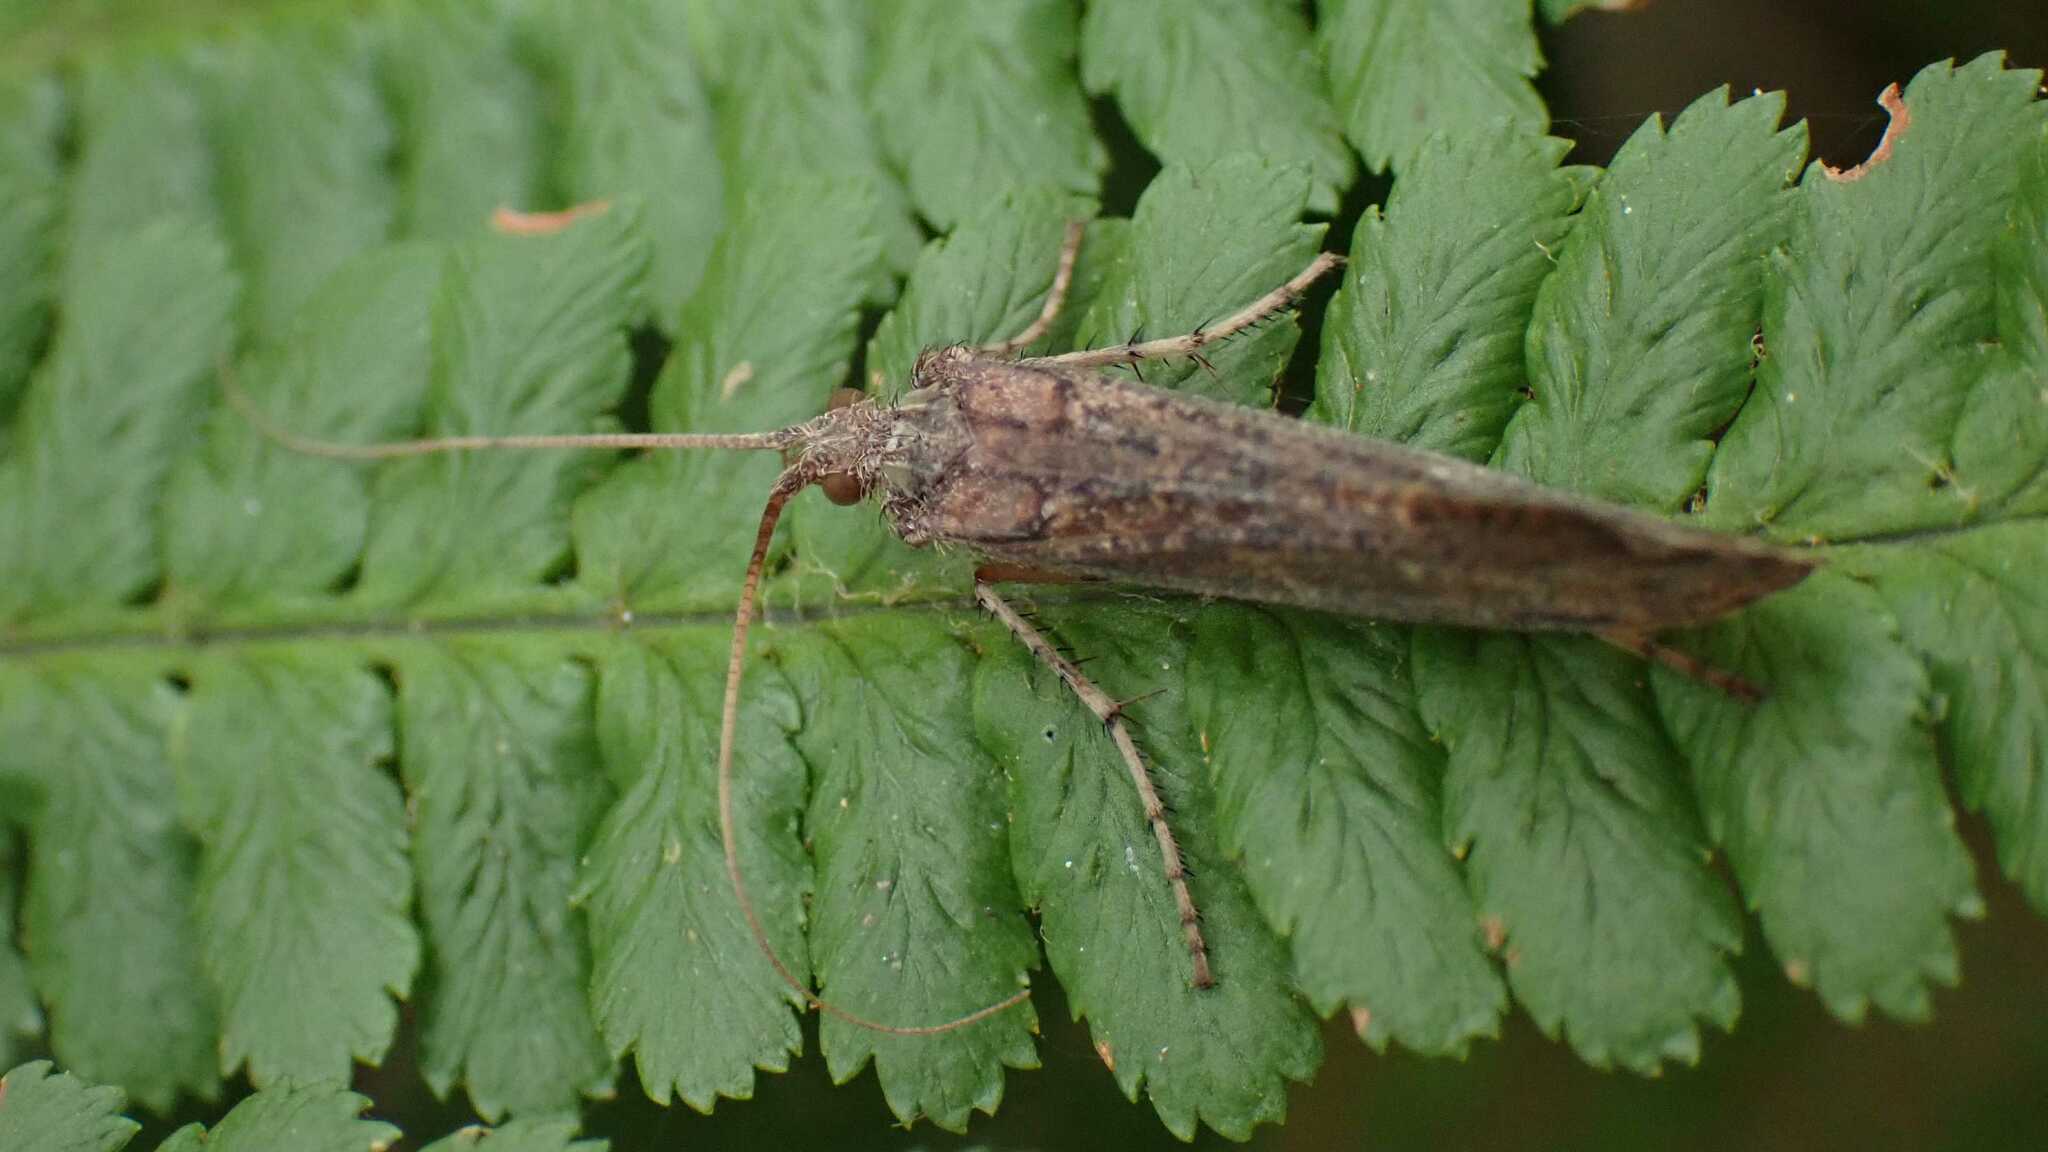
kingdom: Animalia
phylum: Arthropoda
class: Insecta
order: Trichoptera
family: Limnephilidae
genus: Glyphotaelius
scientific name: Glyphotaelius pellucidus
